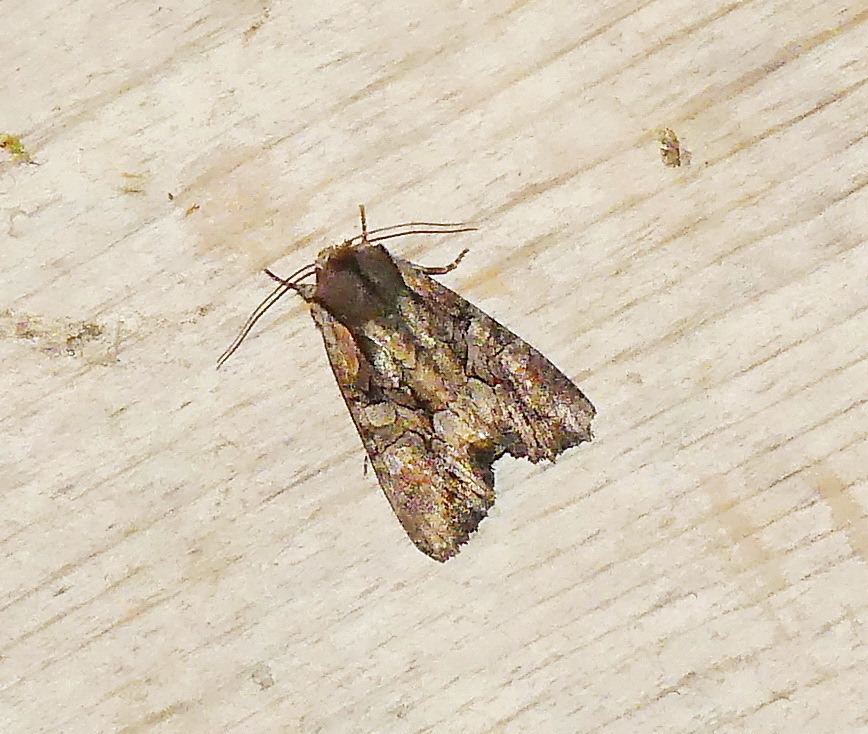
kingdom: Animalia
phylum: Arthropoda
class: Insecta
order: Lepidoptera
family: Noctuidae
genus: Lacanobia
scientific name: Lacanobia subjuncta
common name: Speckled cutworm moth
